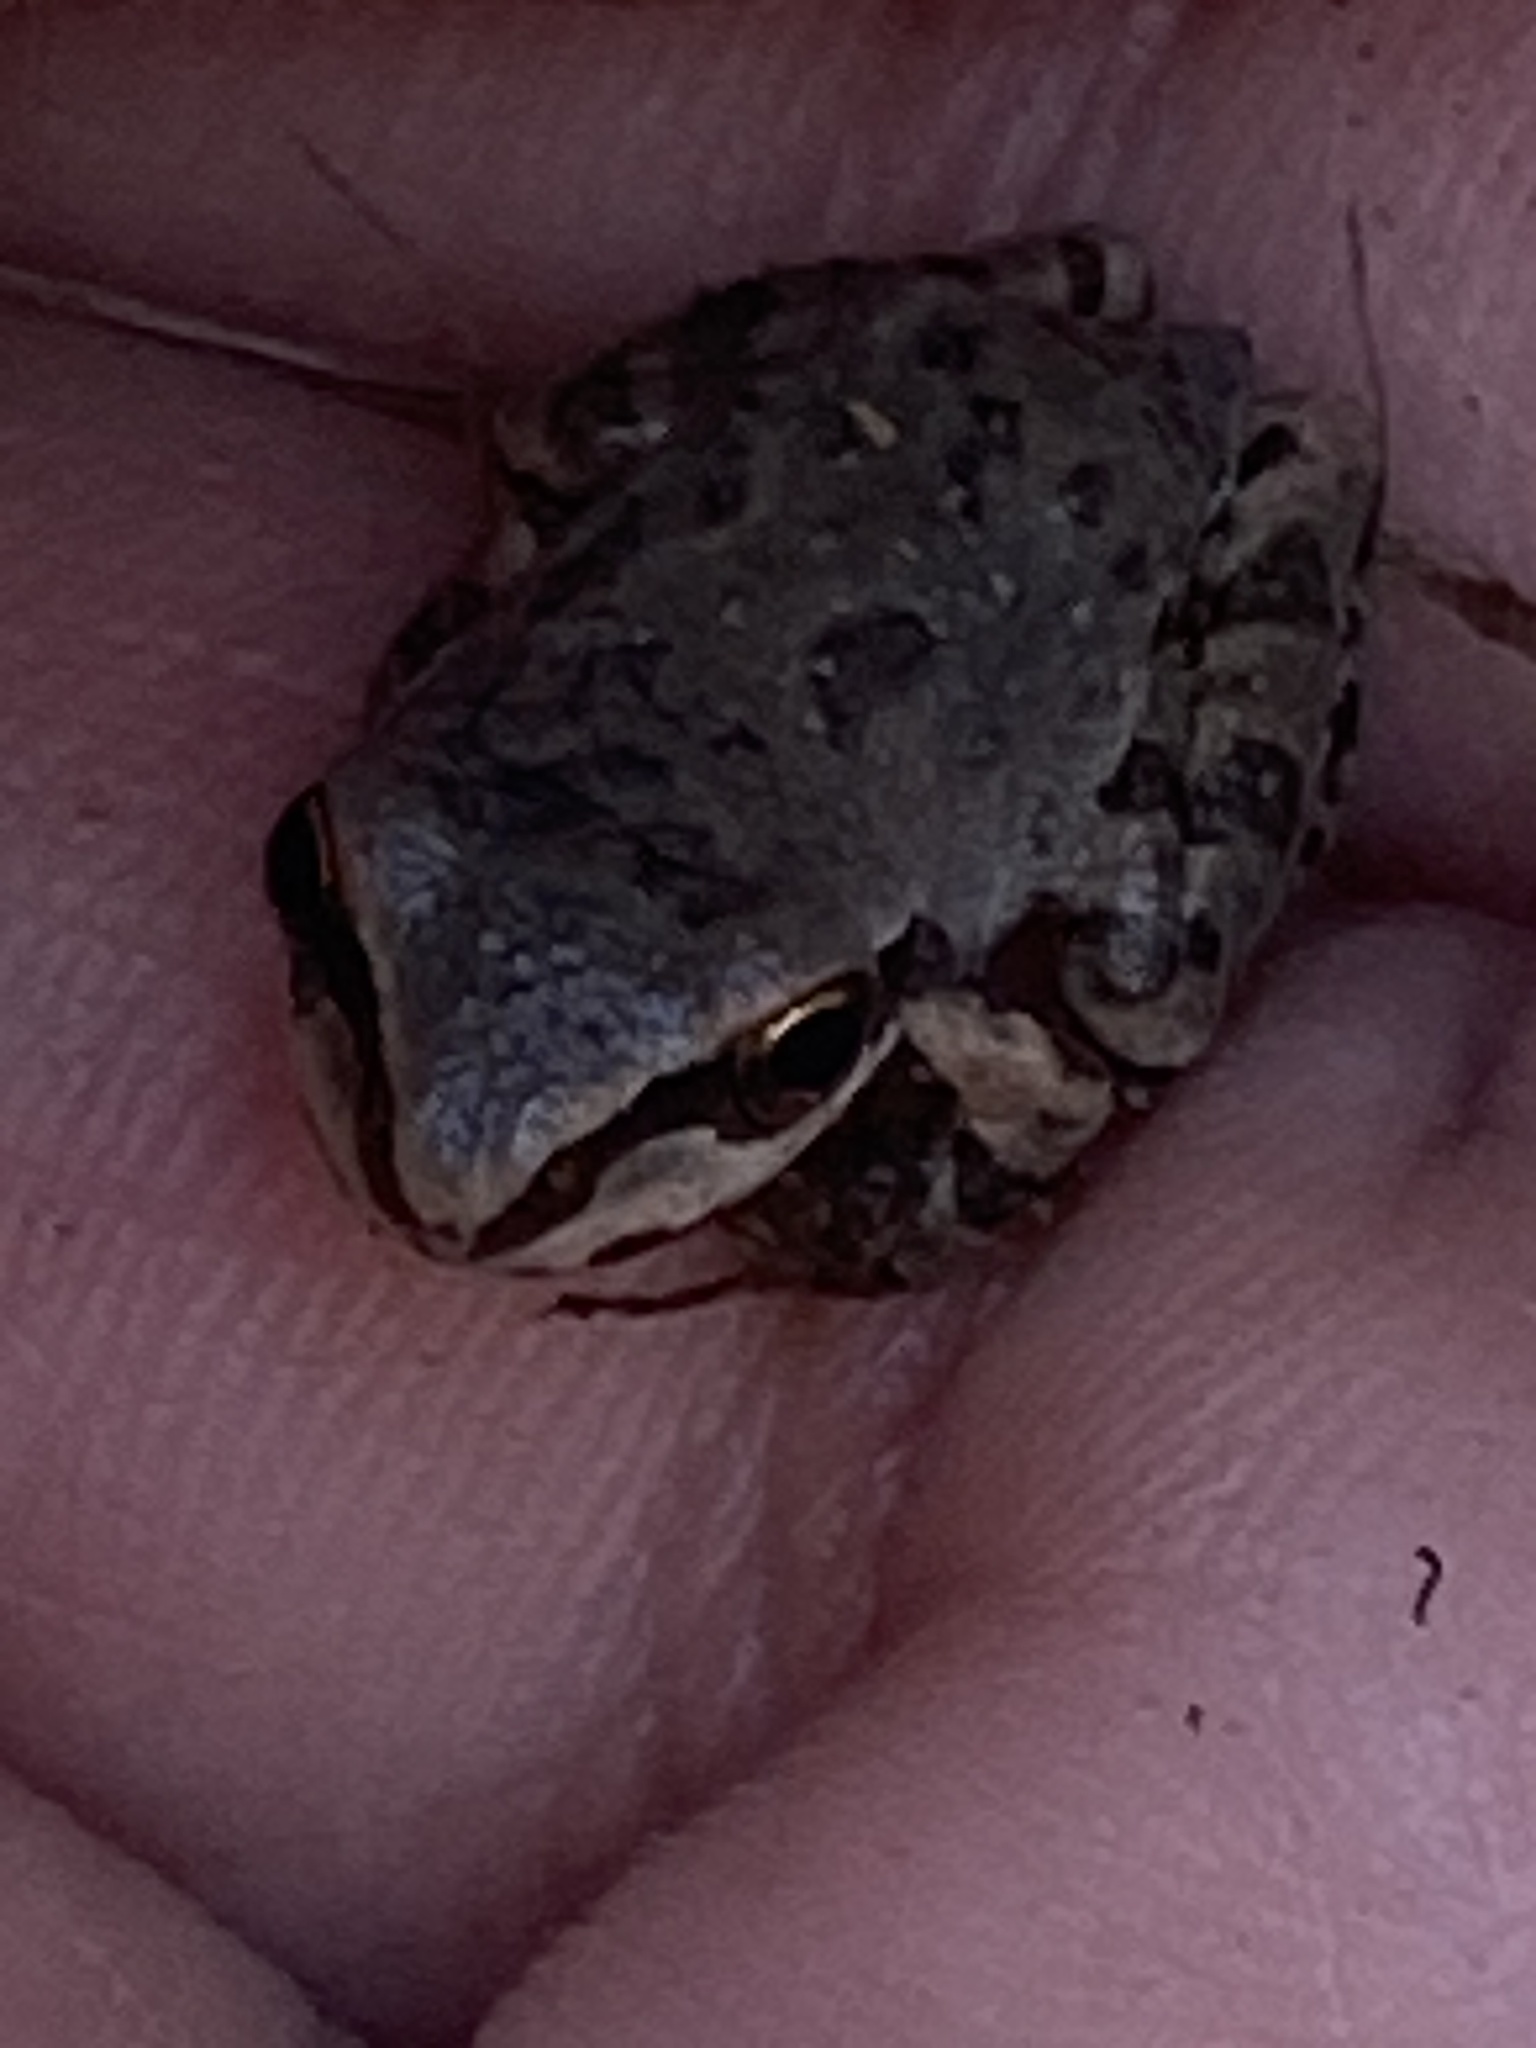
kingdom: Animalia
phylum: Chordata
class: Amphibia
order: Anura
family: Hylidae
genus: Pseudacris
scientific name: Pseudacris regilla
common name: Pacific chorus frog
